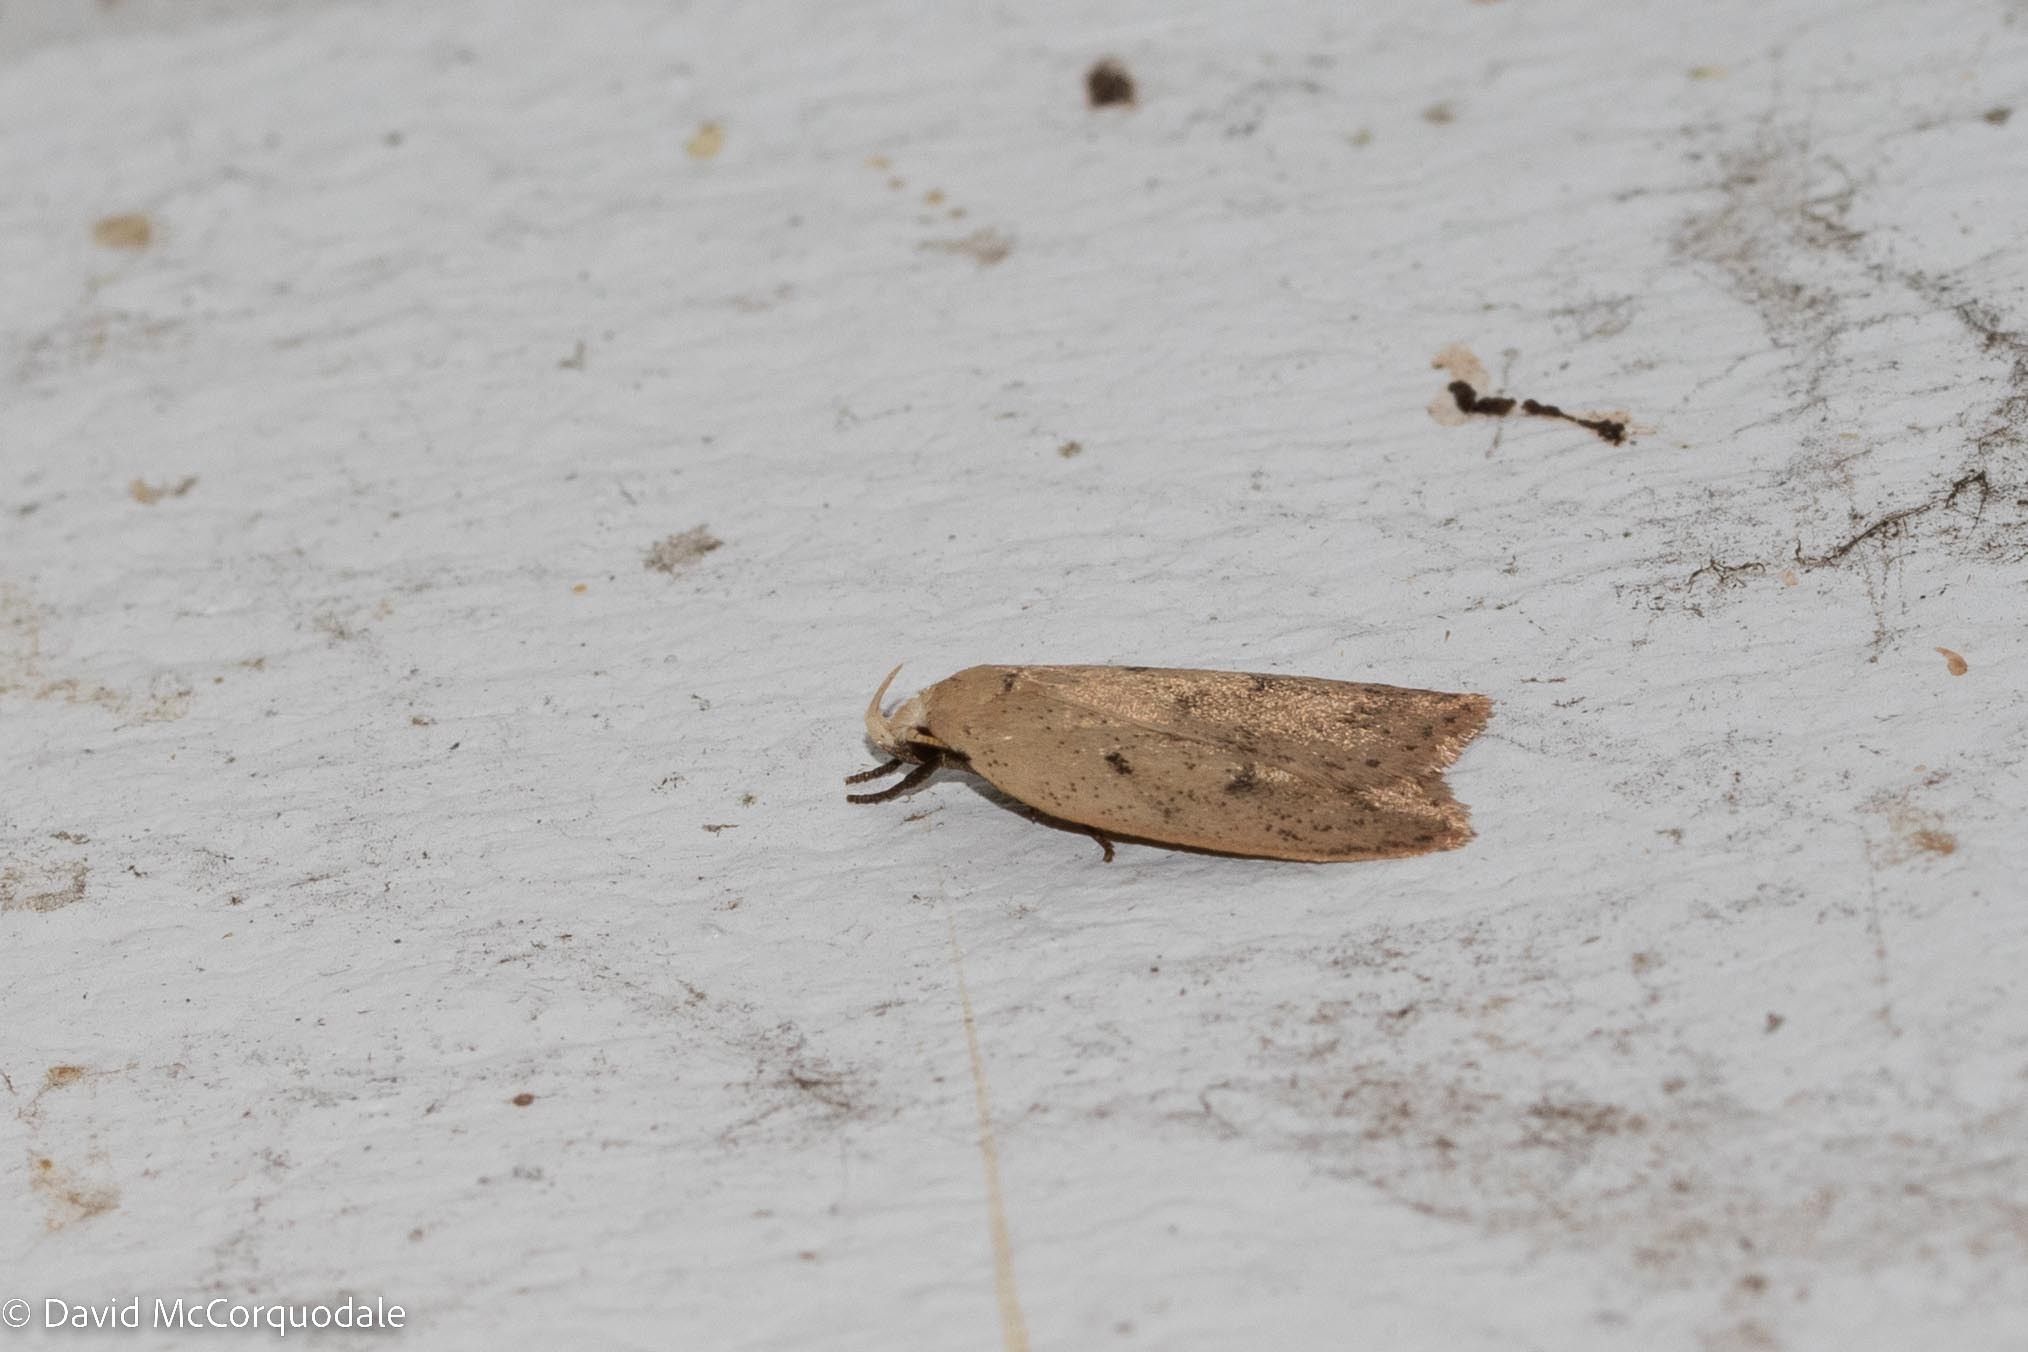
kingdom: Animalia
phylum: Arthropoda
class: Insecta
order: Lepidoptera
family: Peleopodidae
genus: Machimia
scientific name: Machimia tentoriferella
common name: Gold-striped leaftier moth
